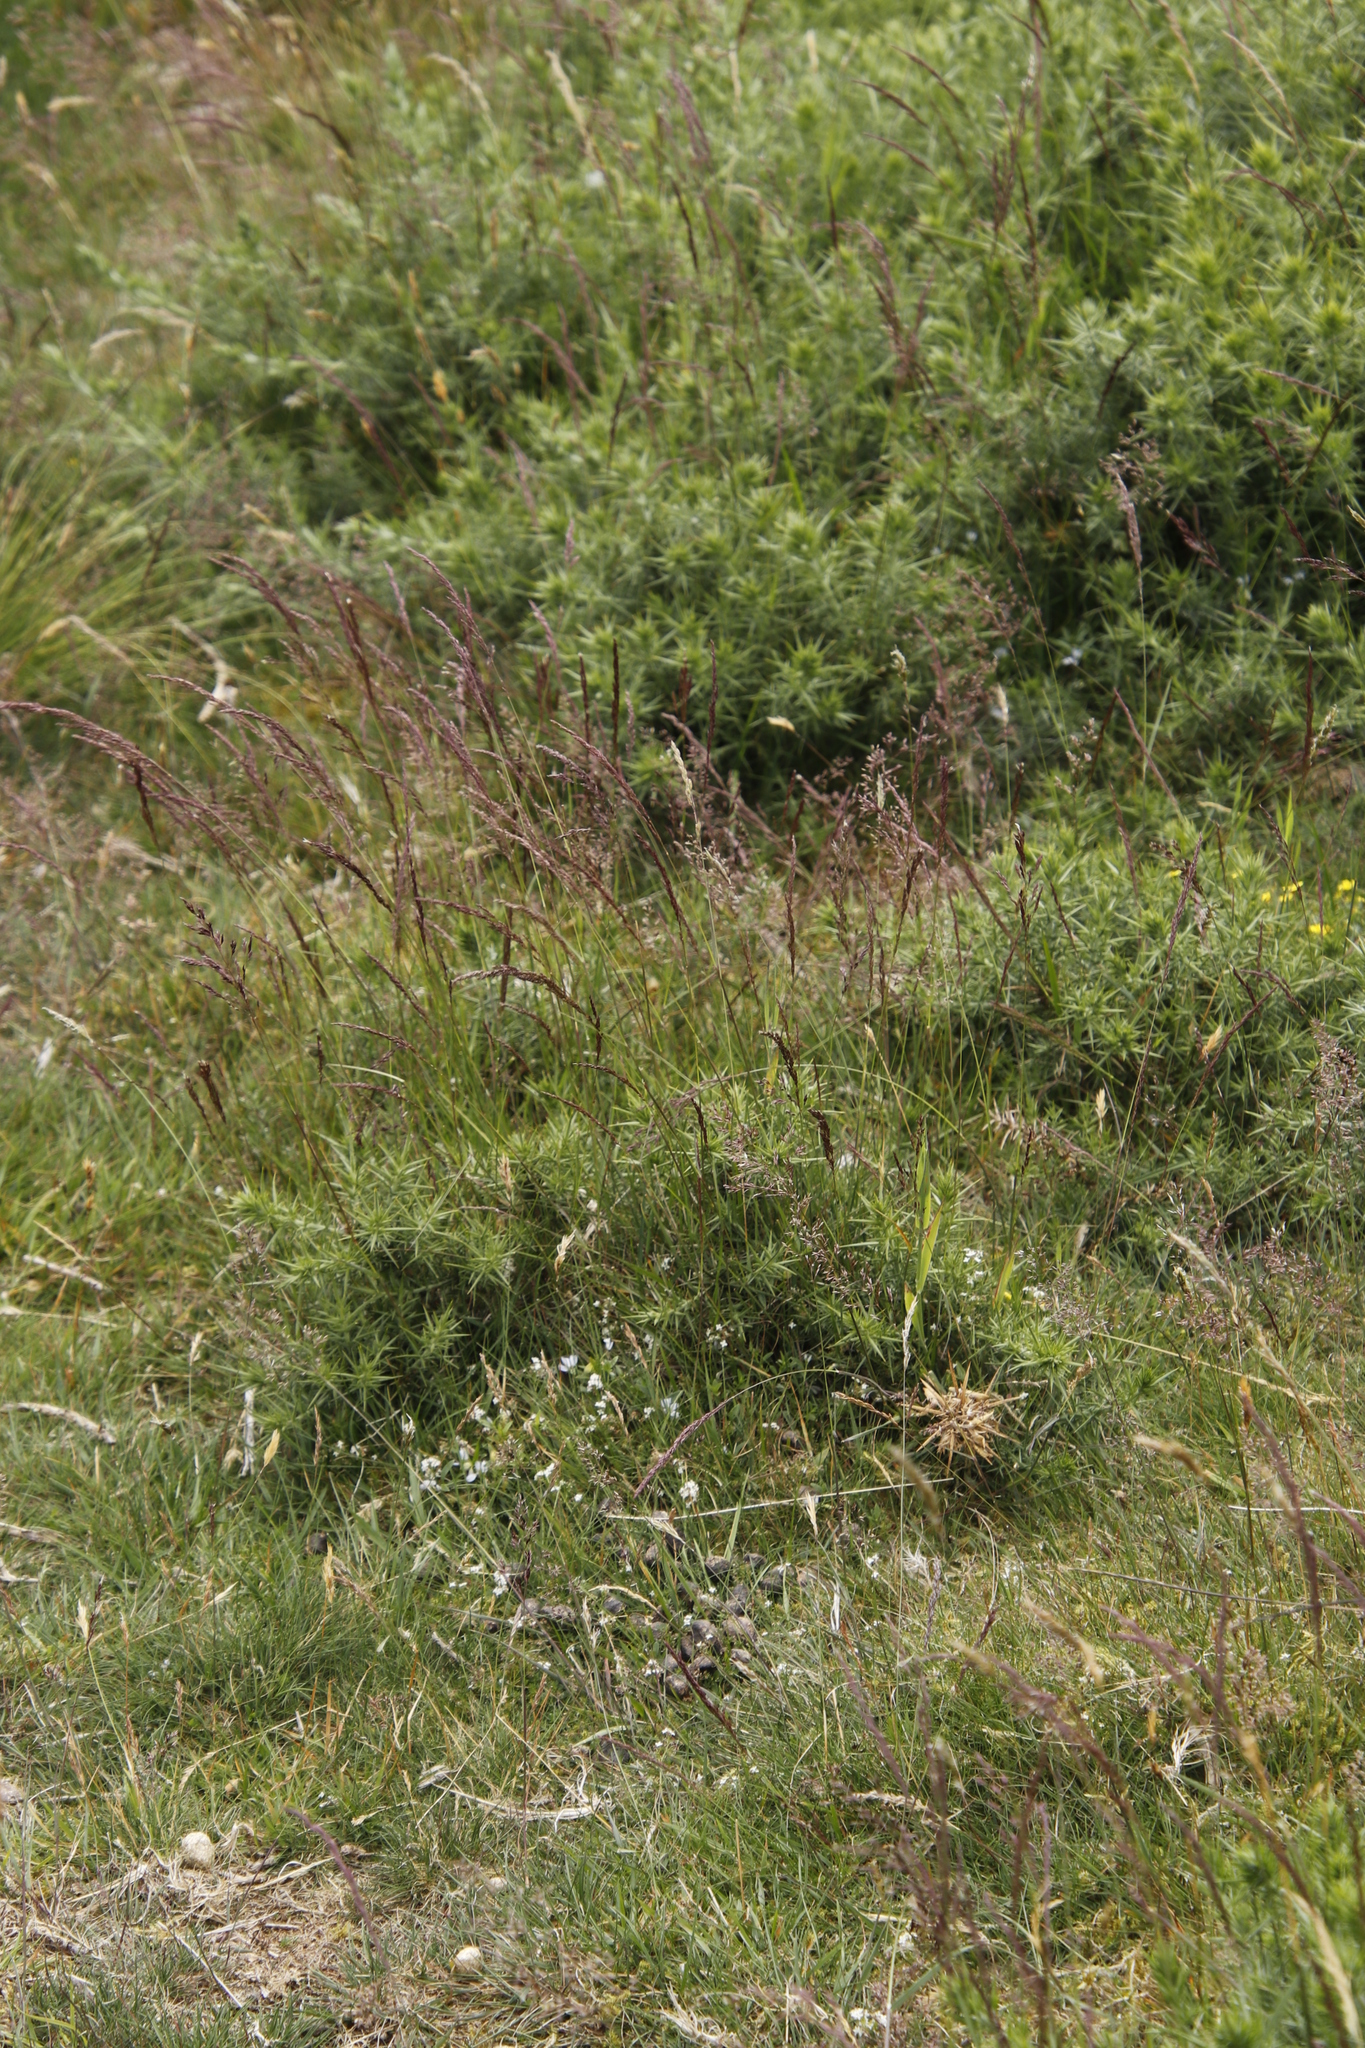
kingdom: Plantae
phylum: Tracheophyta
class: Magnoliopsida
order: Fabales
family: Fabaceae
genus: Ulex
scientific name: Ulex europaeus
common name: Common gorse
